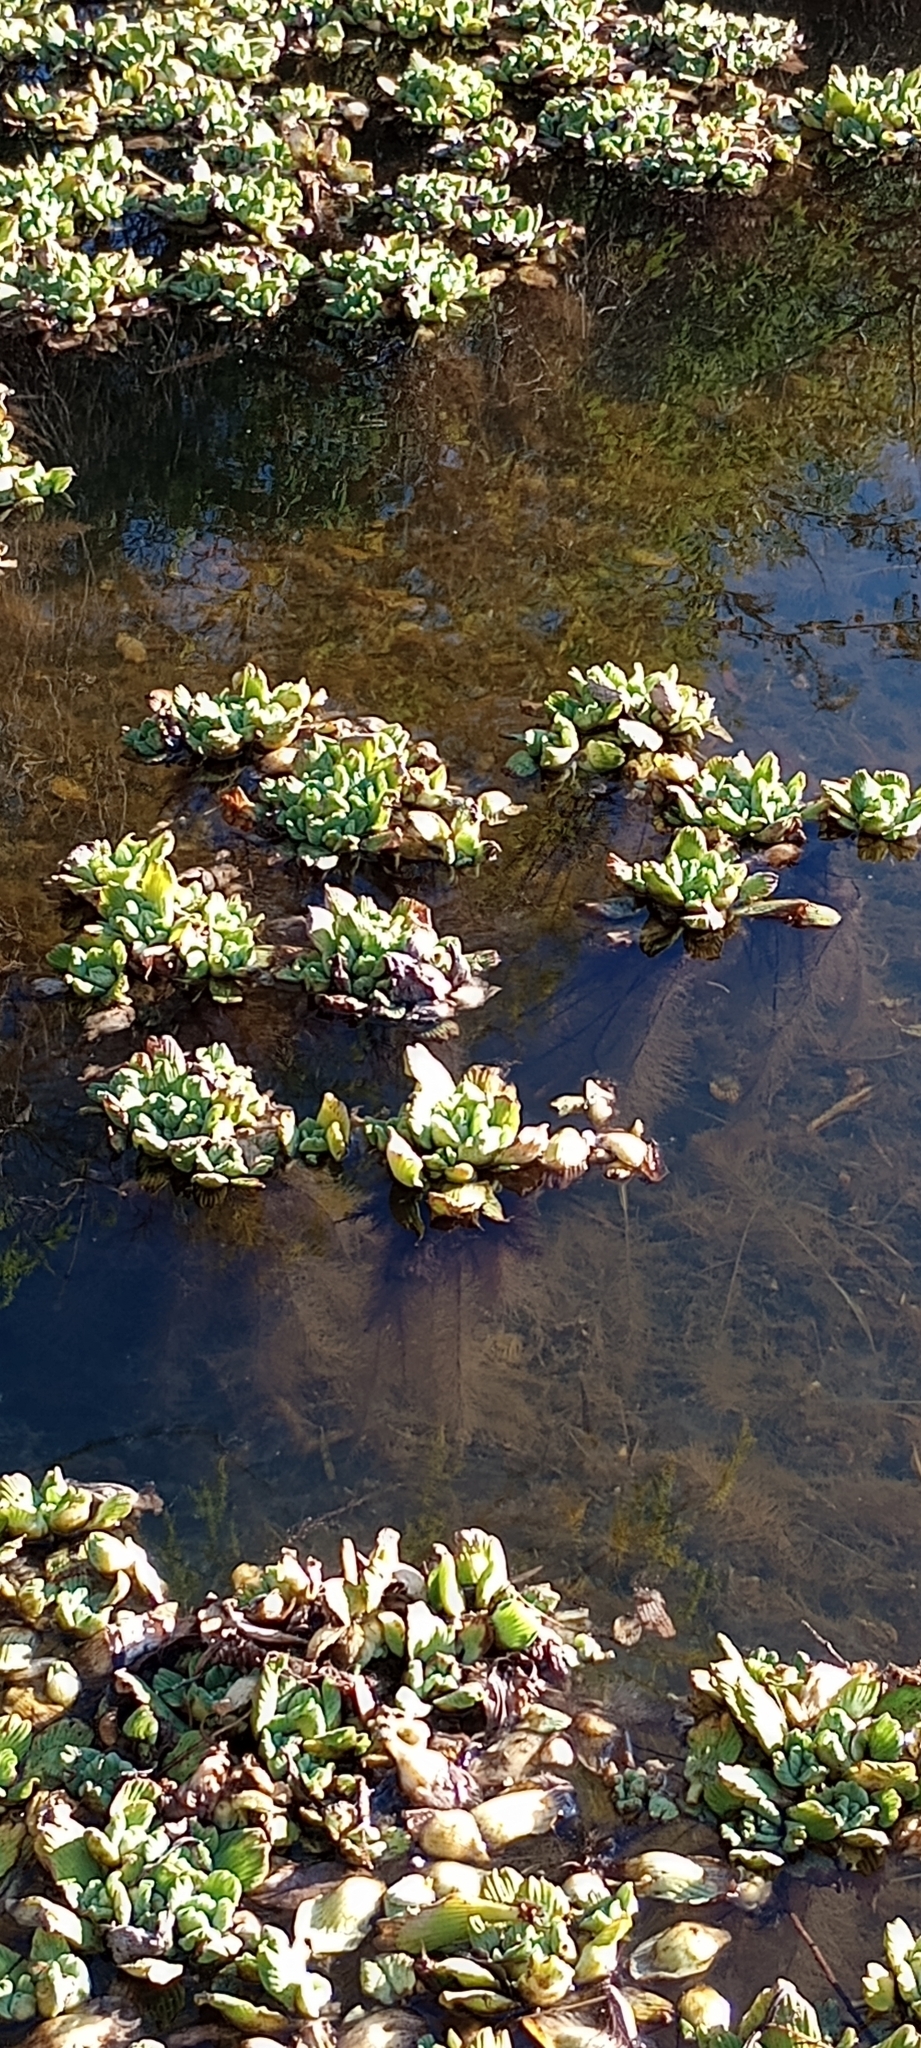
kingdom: Plantae
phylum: Tracheophyta
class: Liliopsida
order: Alismatales
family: Araceae
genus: Pistia
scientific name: Pistia stratiotes
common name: Water lettuce
